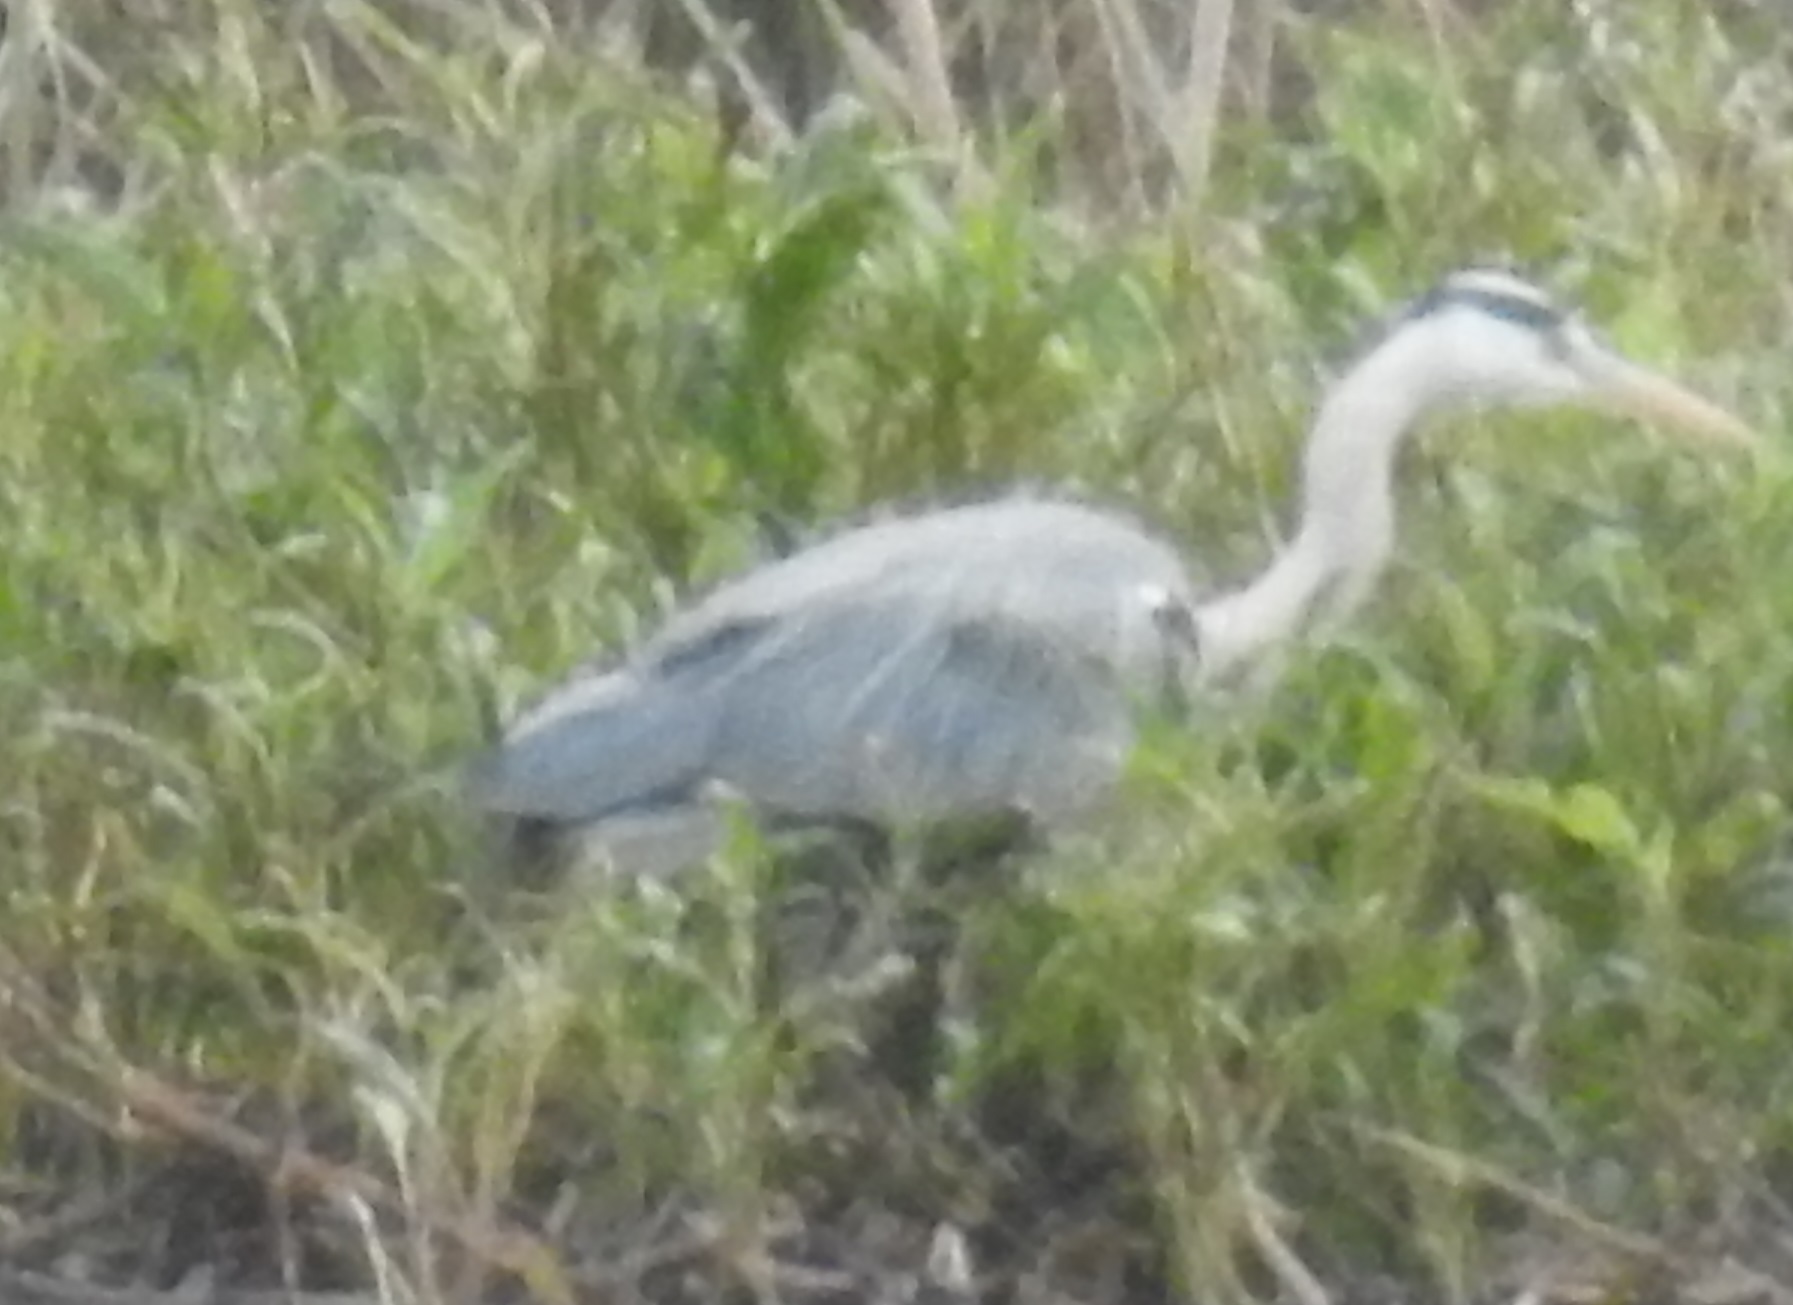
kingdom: Animalia
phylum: Chordata
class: Aves
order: Pelecaniformes
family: Ardeidae
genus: Ardea
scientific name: Ardea cinerea
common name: Grey heron
